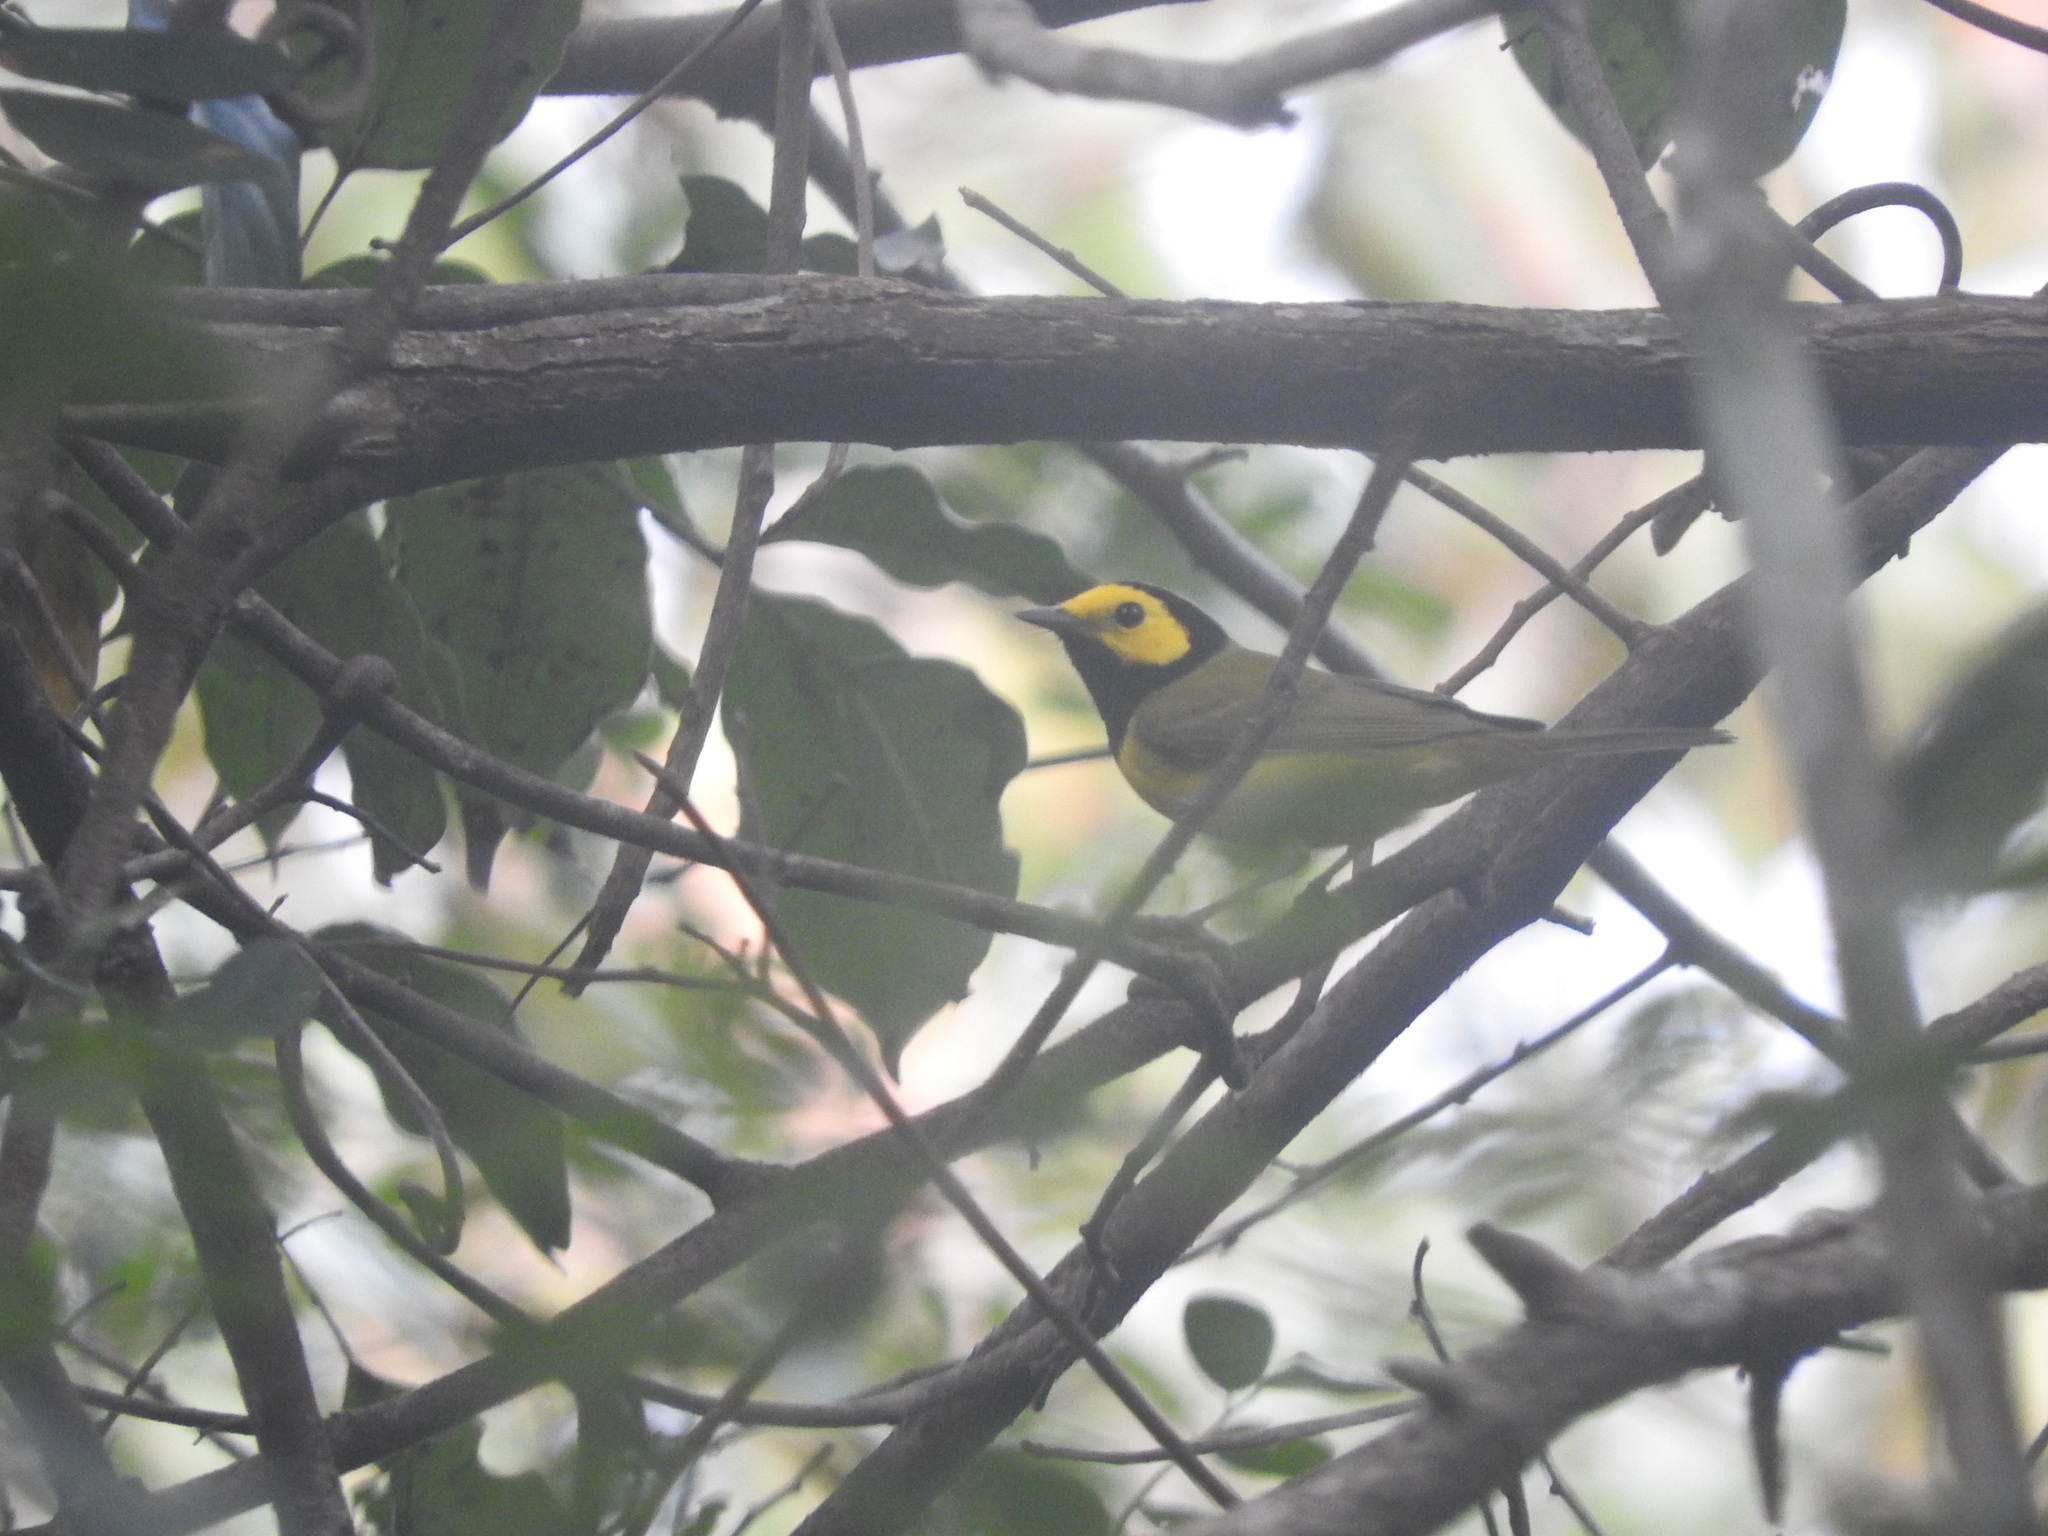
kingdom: Animalia
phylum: Chordata
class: Aves
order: Passeriformes
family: Parulidae
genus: Setophaga
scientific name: Setophaga citrina
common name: Hooded warbler
